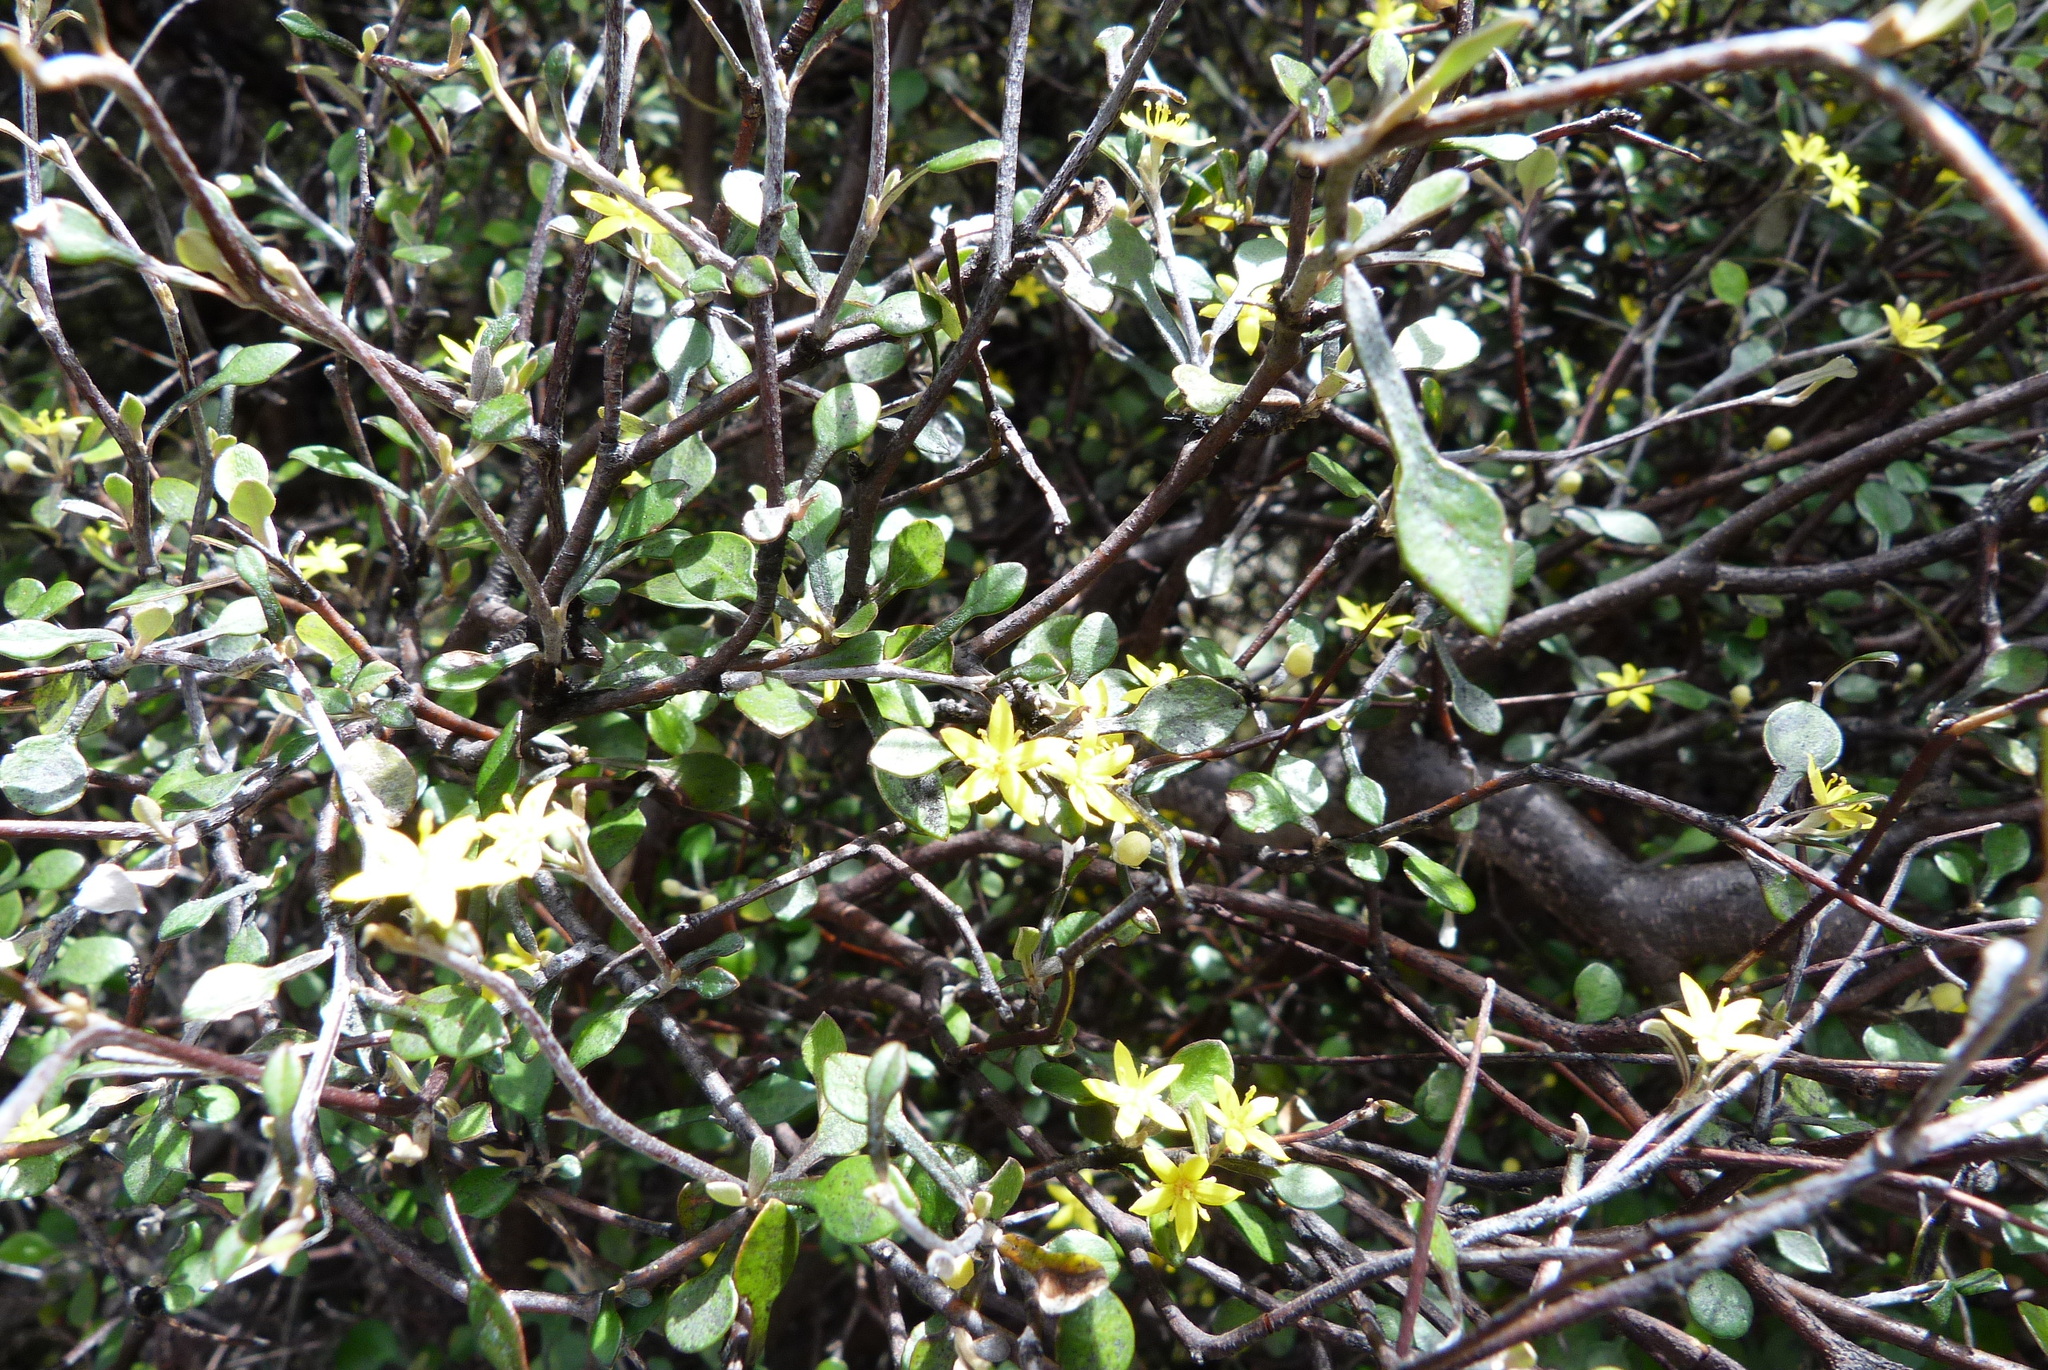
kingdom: Plantae
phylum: Tracheophyta
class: Magnoliopsida
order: Asterales
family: Argophyllaceae
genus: Corokia
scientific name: Corokia cotoneaster
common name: Wire nettingbush
